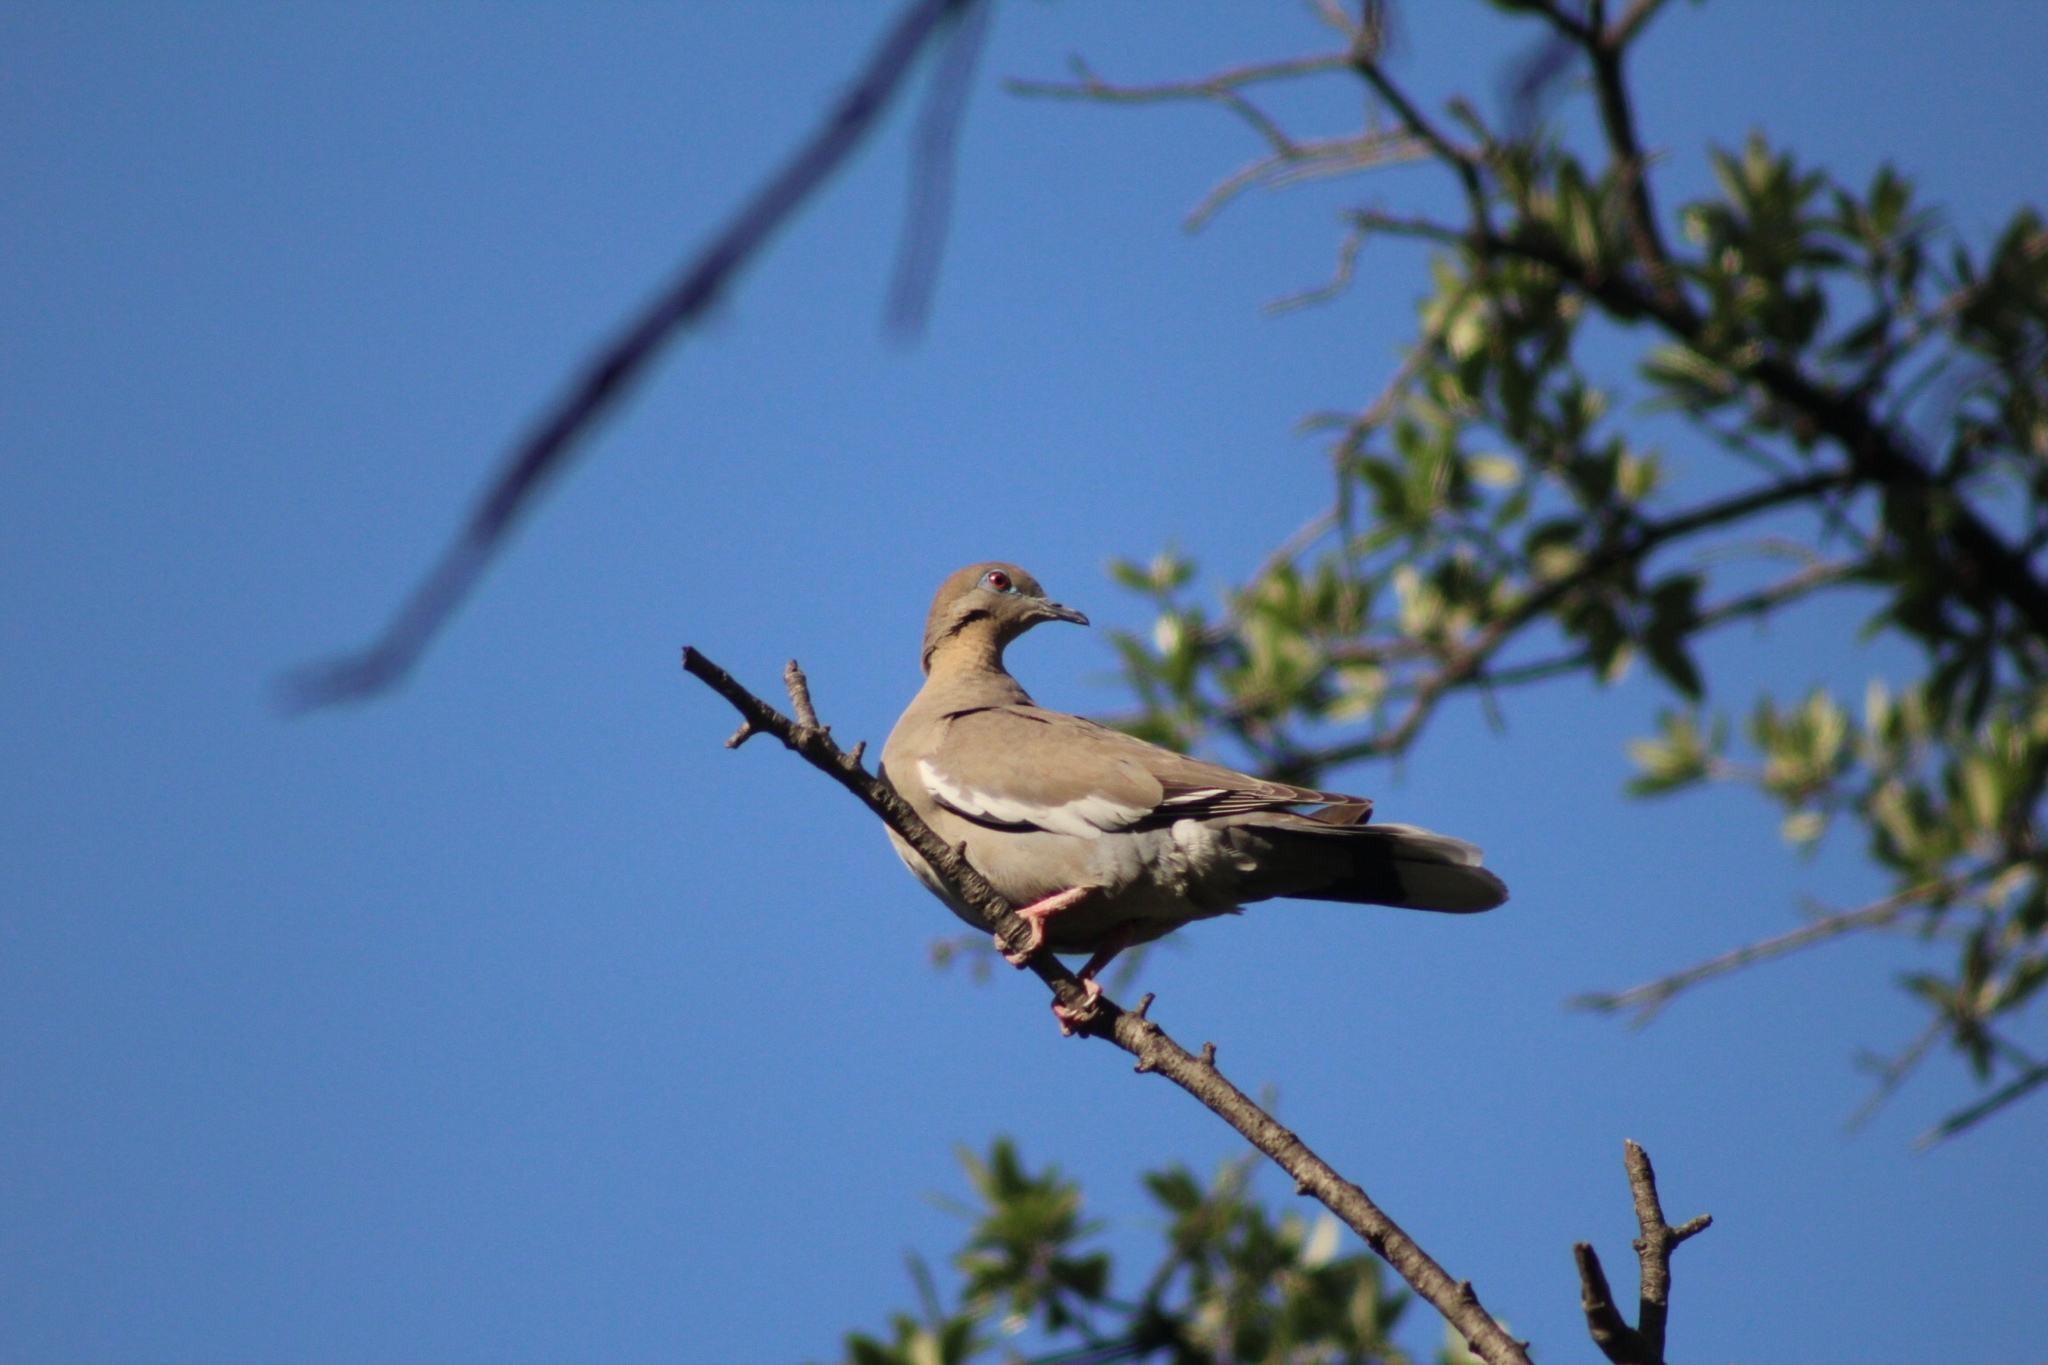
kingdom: Animalia
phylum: Chordata
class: Aves
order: Columbiformes
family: Columbidae
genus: Zenaida
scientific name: Zenaida asiatica
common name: White-winged dove
